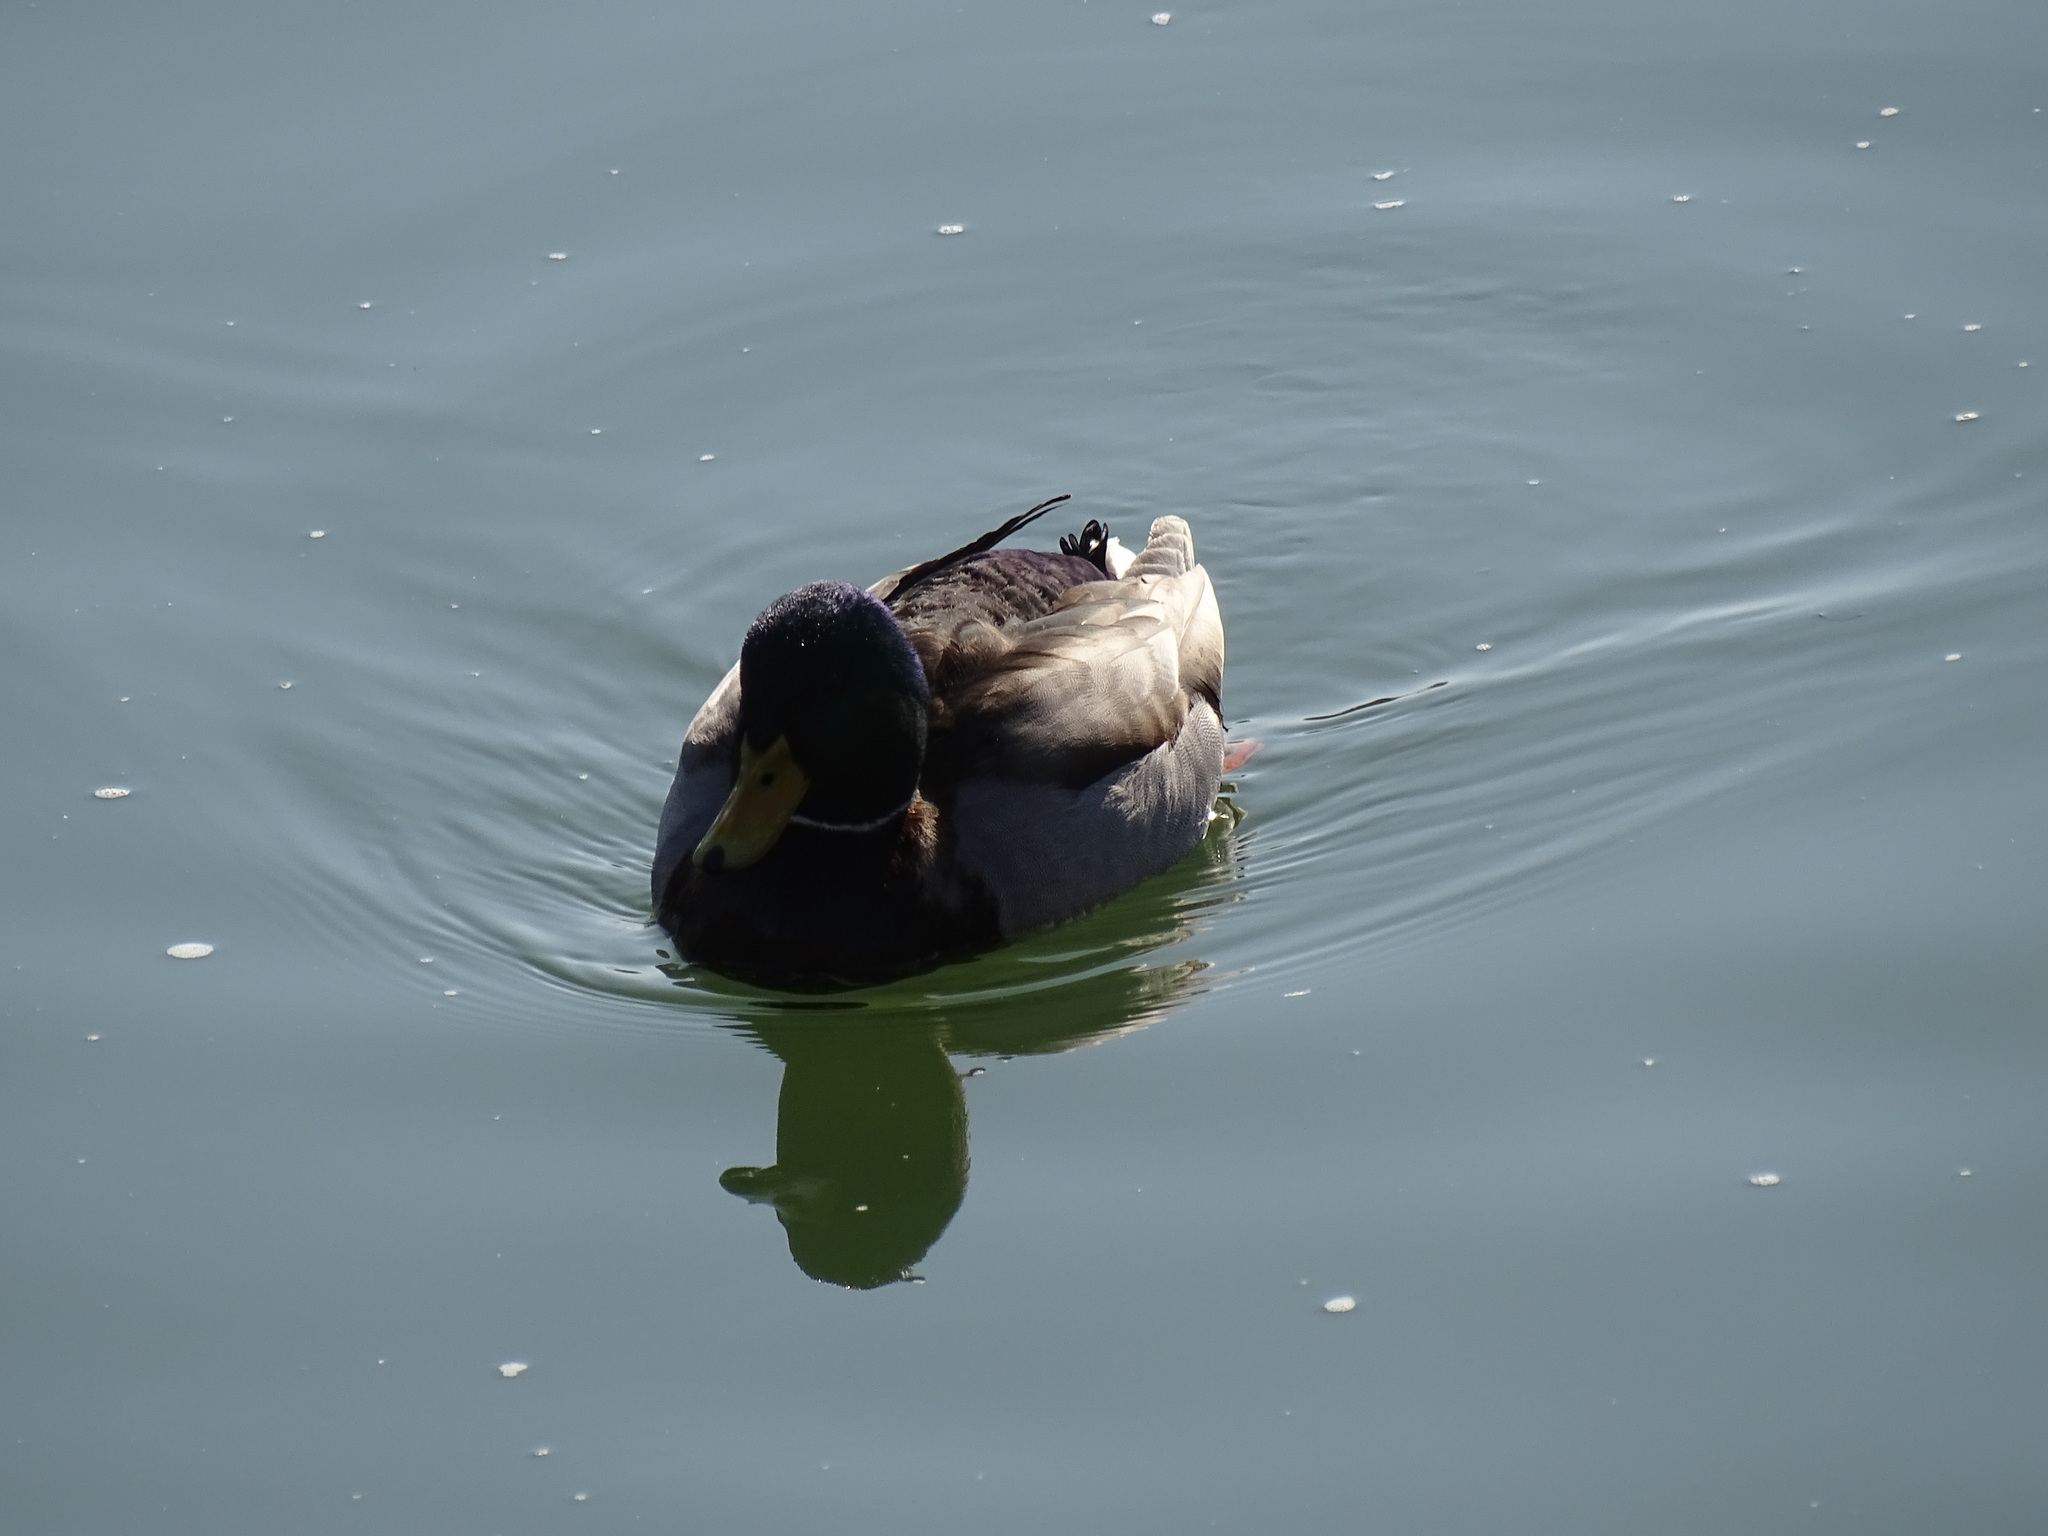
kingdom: Animalia
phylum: Chordata
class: Aves
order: Anseriformes
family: Anatidae
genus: Anas
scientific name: Anas platyrhynchos
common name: Mallard
